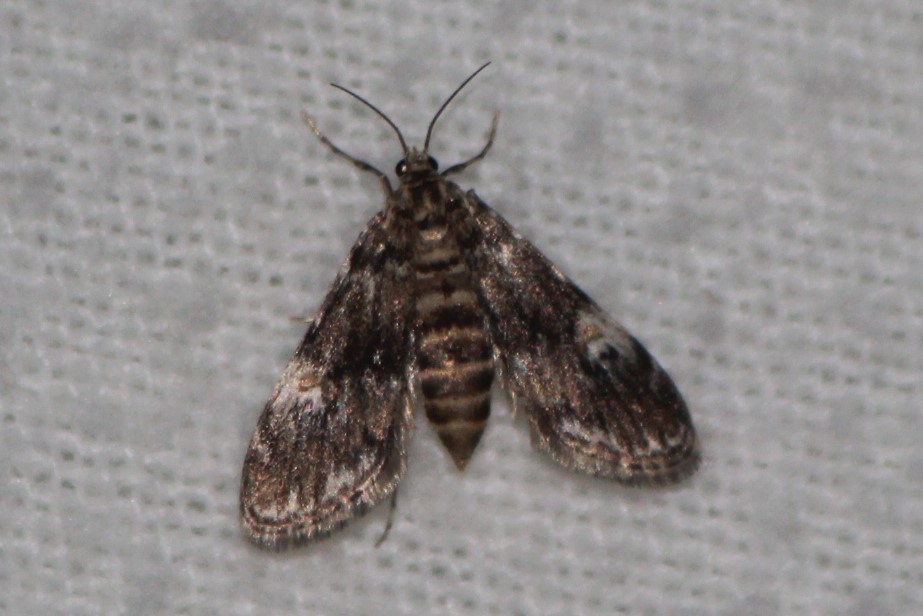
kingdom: Animalia
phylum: Arthropoda
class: Insecta
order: Lepidoptera
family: Crambidae
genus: Elophila
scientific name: Elophila obliteralis
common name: Waterlily leafcutter moth
